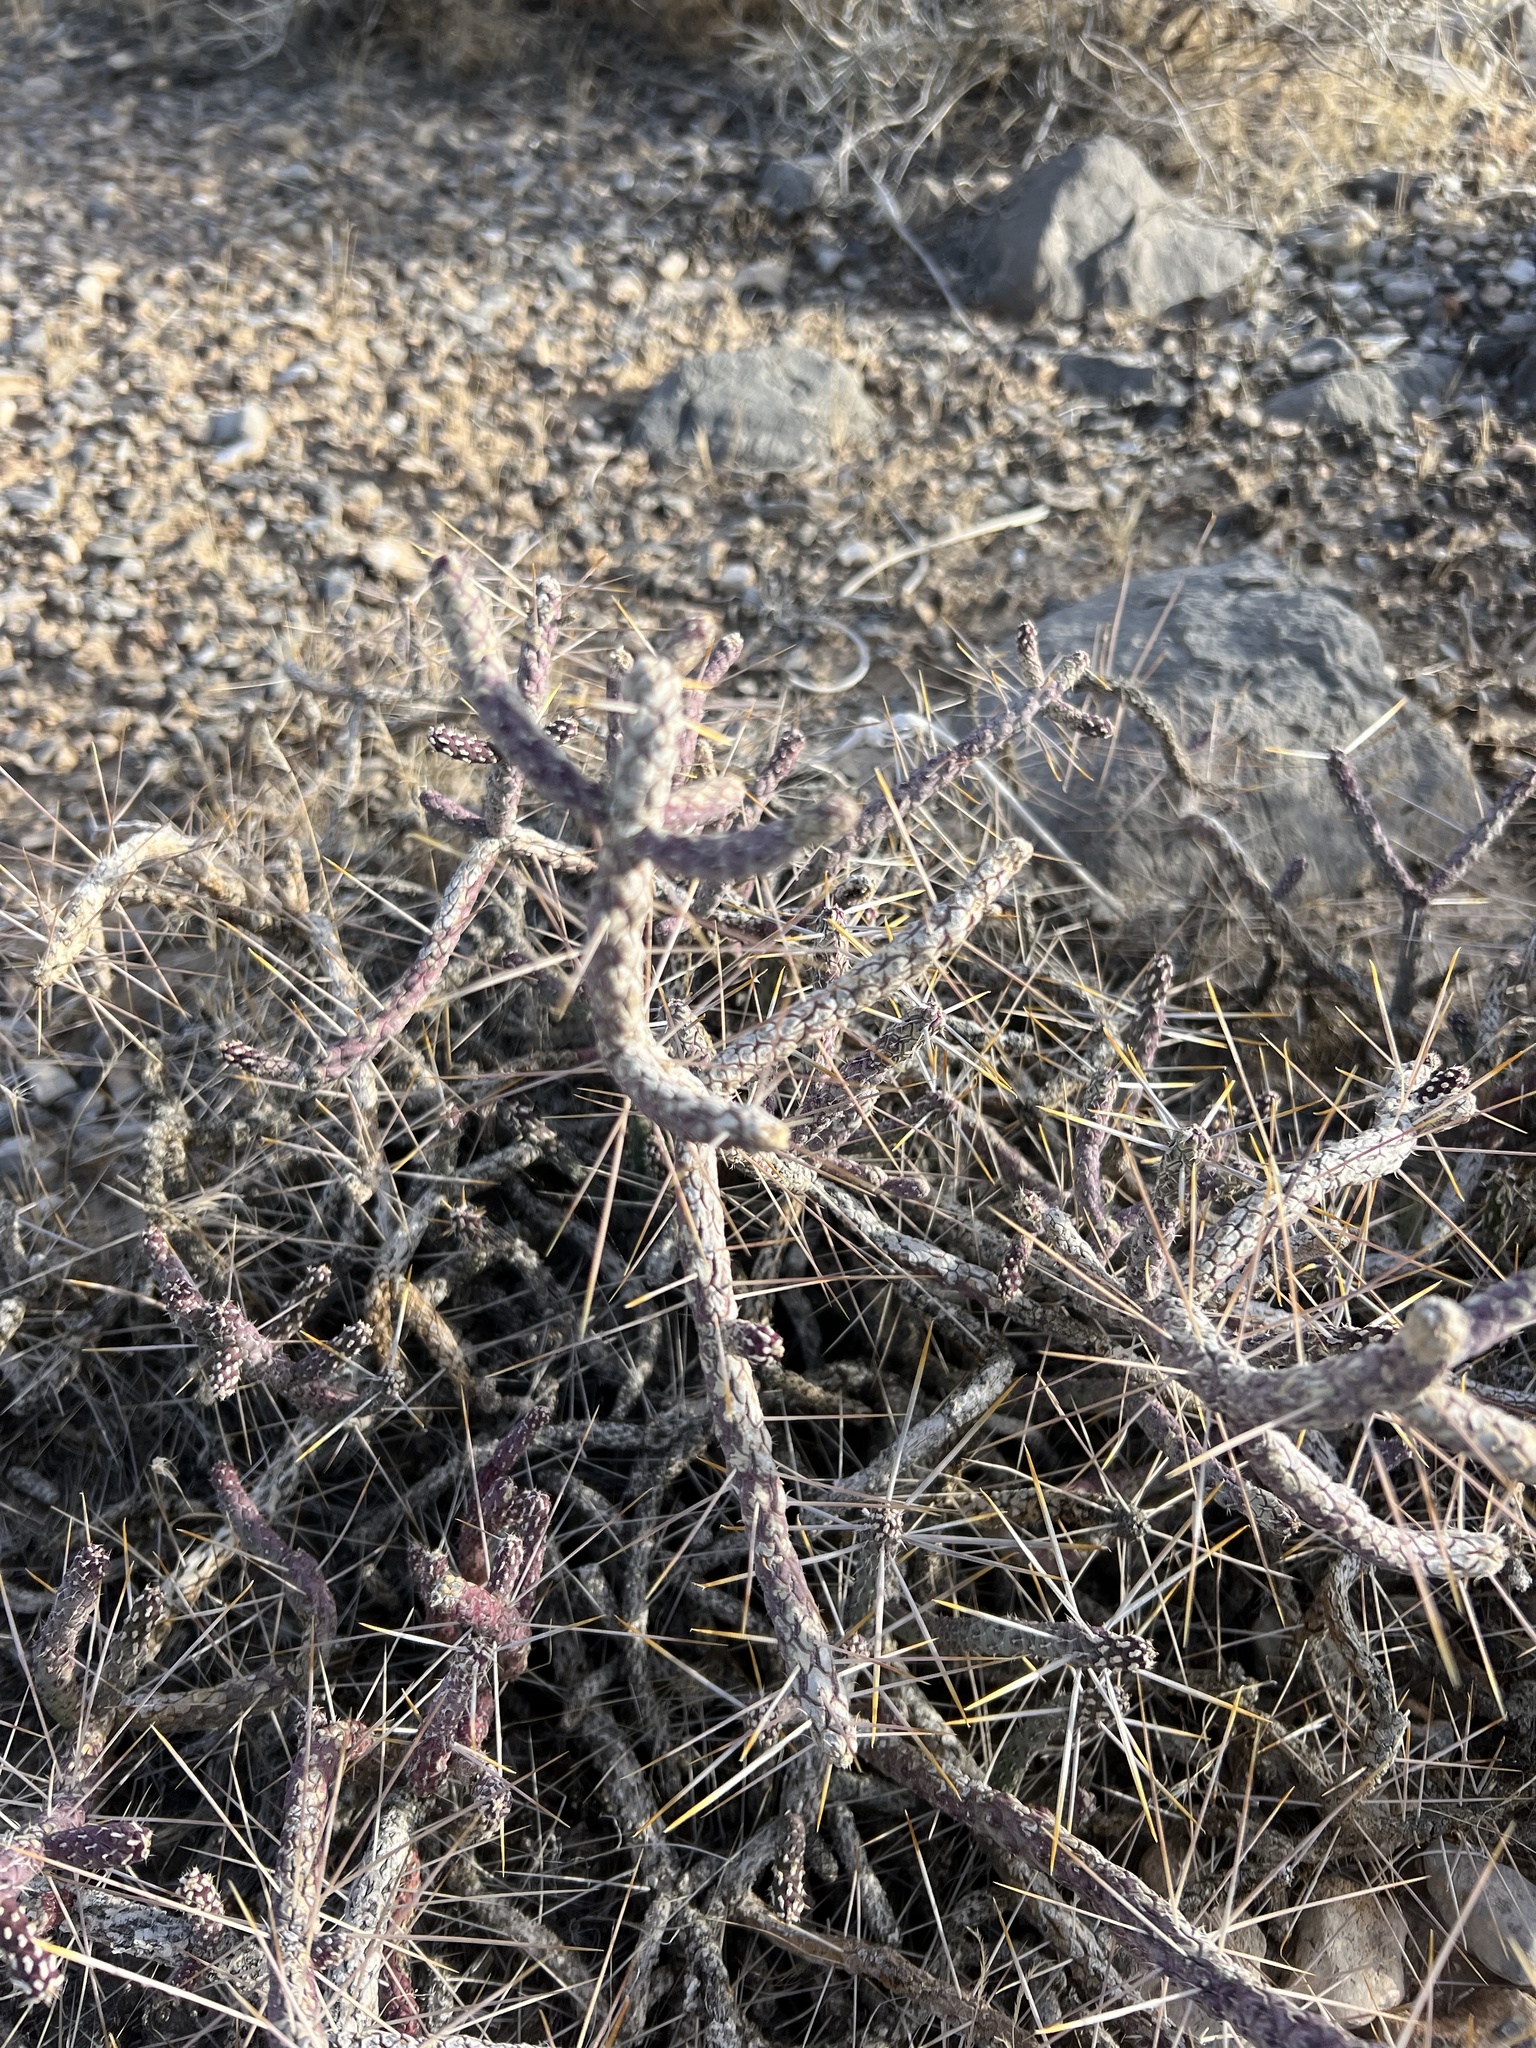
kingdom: Plantae
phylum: Tracheophyta
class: Magnoliopsida
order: Caryophyllales
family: Cactaceae
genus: Cylindropuntia
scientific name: Cylindropuntia ramosissima
